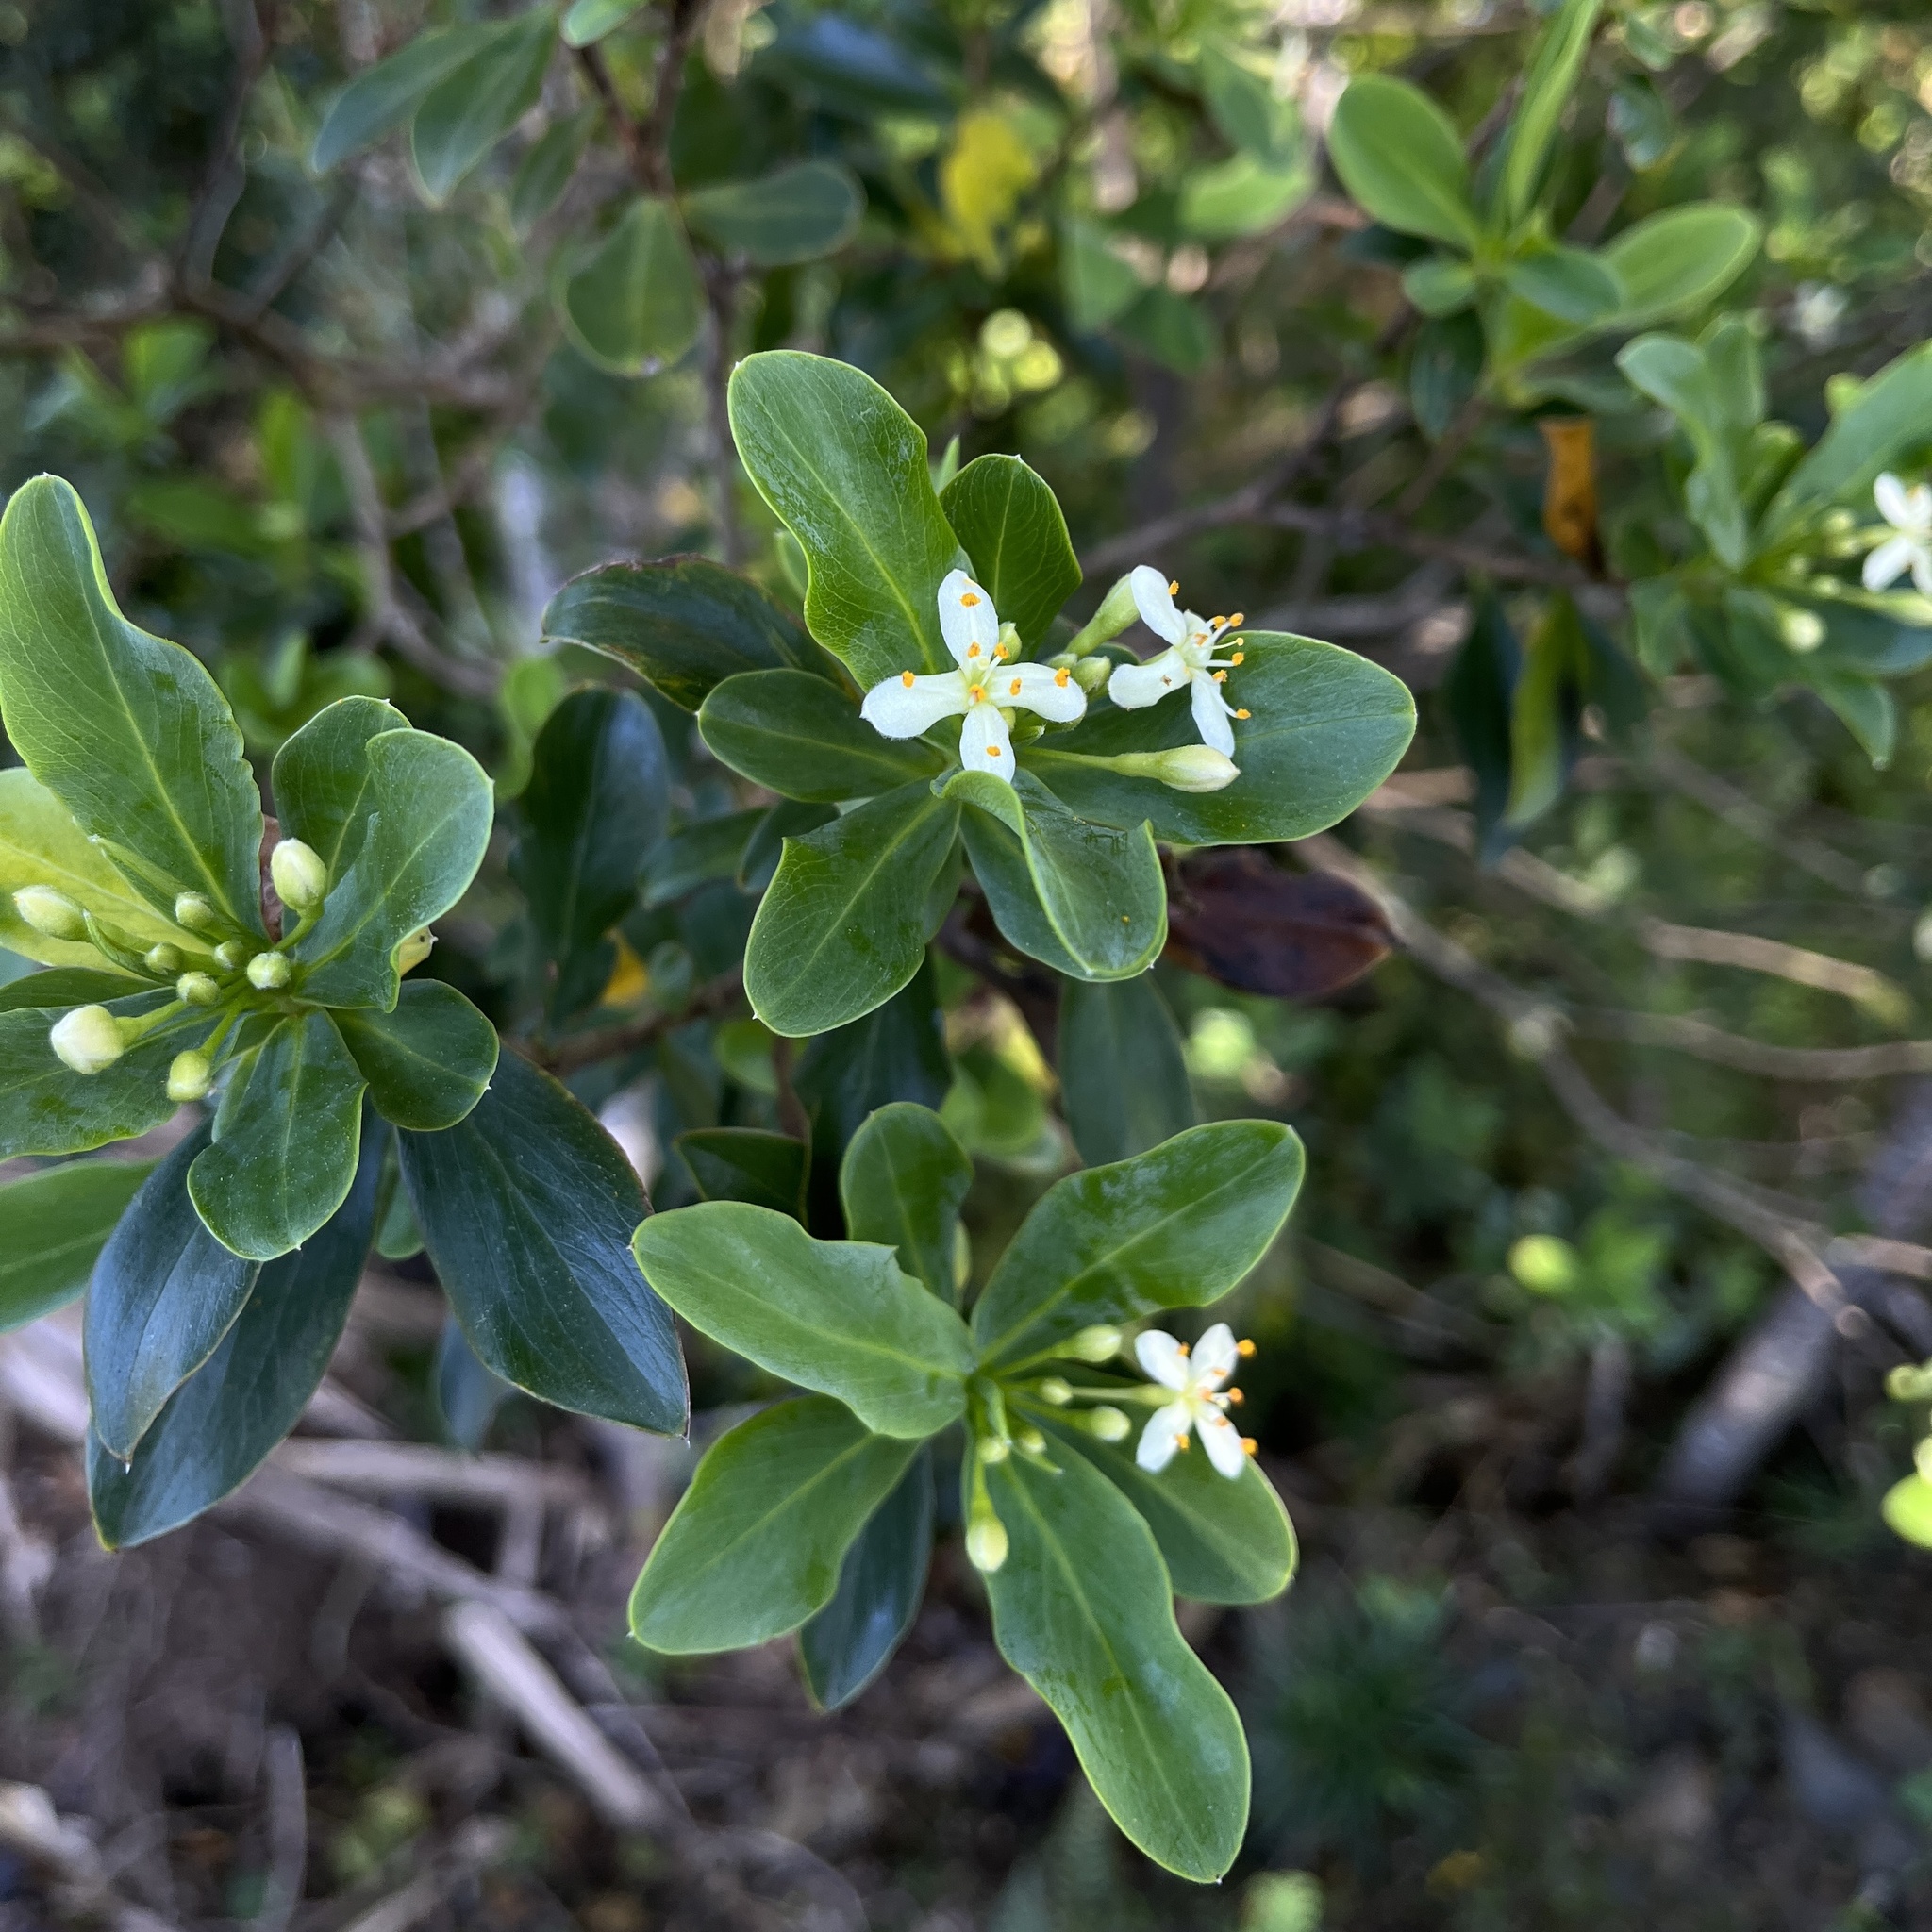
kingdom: Plantae
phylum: Tracheophyta
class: Magnoliopsida
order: Malvales
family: Thymelaeaceae
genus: Ovidia
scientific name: Ovidia pillo-pillo
